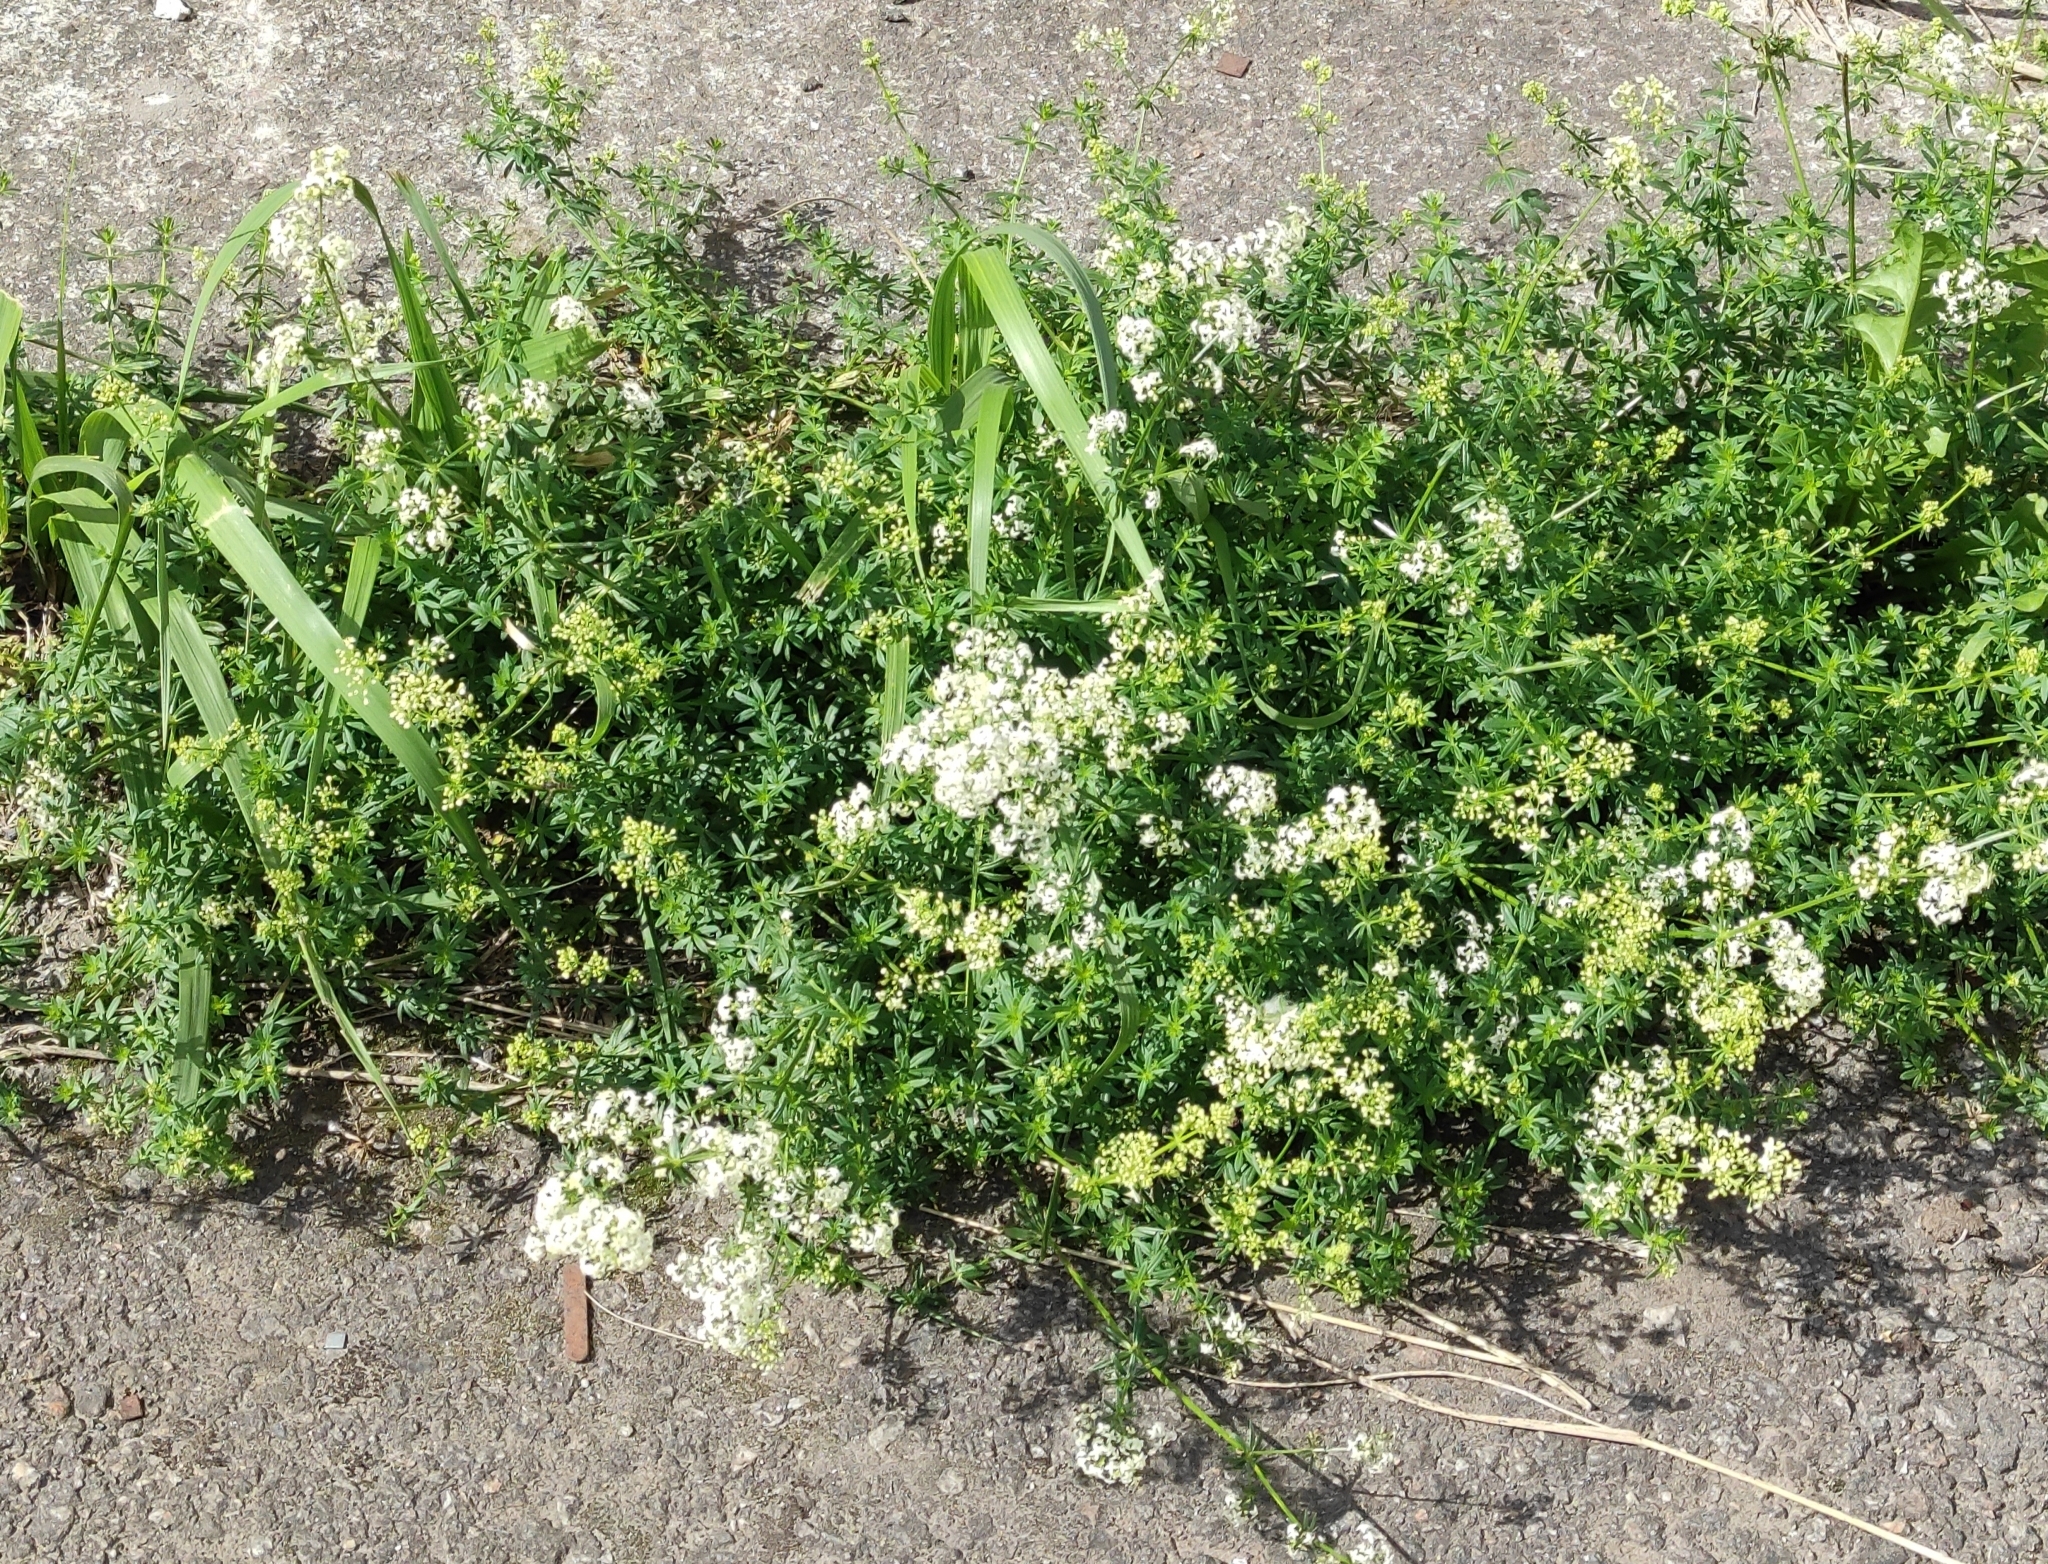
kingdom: Plantae
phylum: Tracheophyta
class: Magnoliopsida
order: Gentianales
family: Rubiaceae
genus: Galium
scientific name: Galium mollugo
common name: Hedge bedstraw
